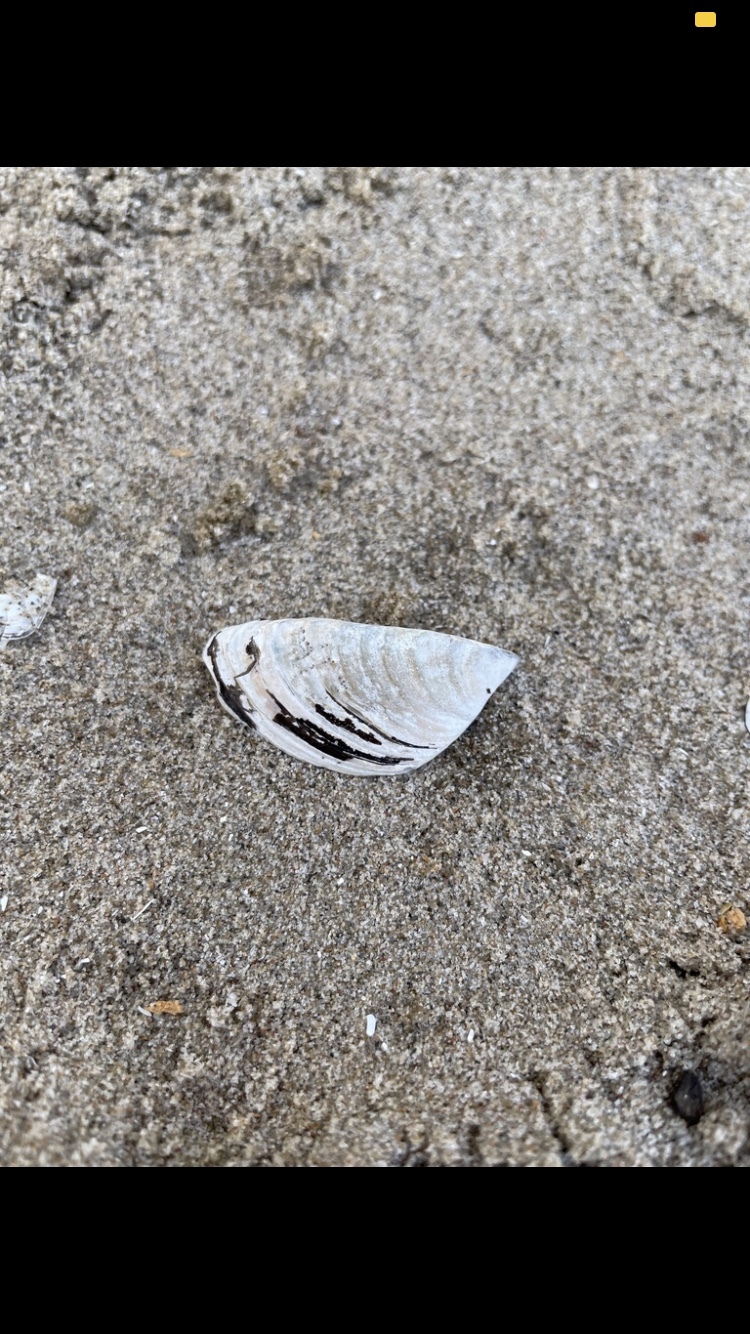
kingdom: Animalia
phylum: Mollusca
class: Bivalvia
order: Myida
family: Dreissenidae
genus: Dreissena
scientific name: Dreissena polymorpha
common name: Zebra mussel
